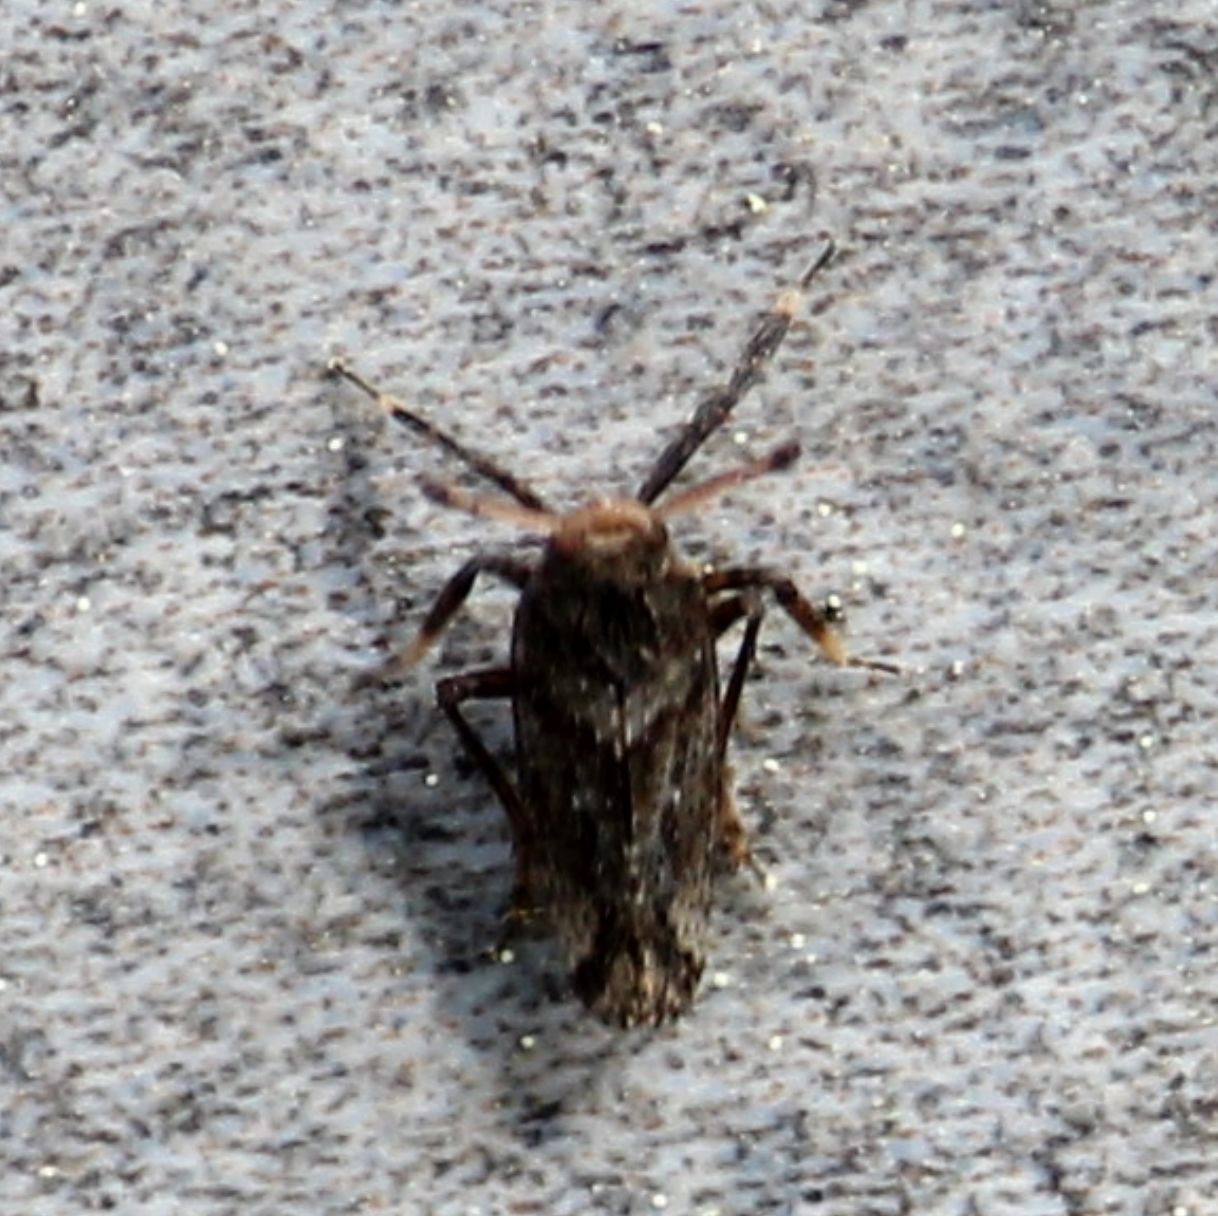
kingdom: Animalia
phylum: Arthropoda
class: Insecta
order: Hemiptera
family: Delphacidae
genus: Asiraca
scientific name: Asiraca clavicornis
